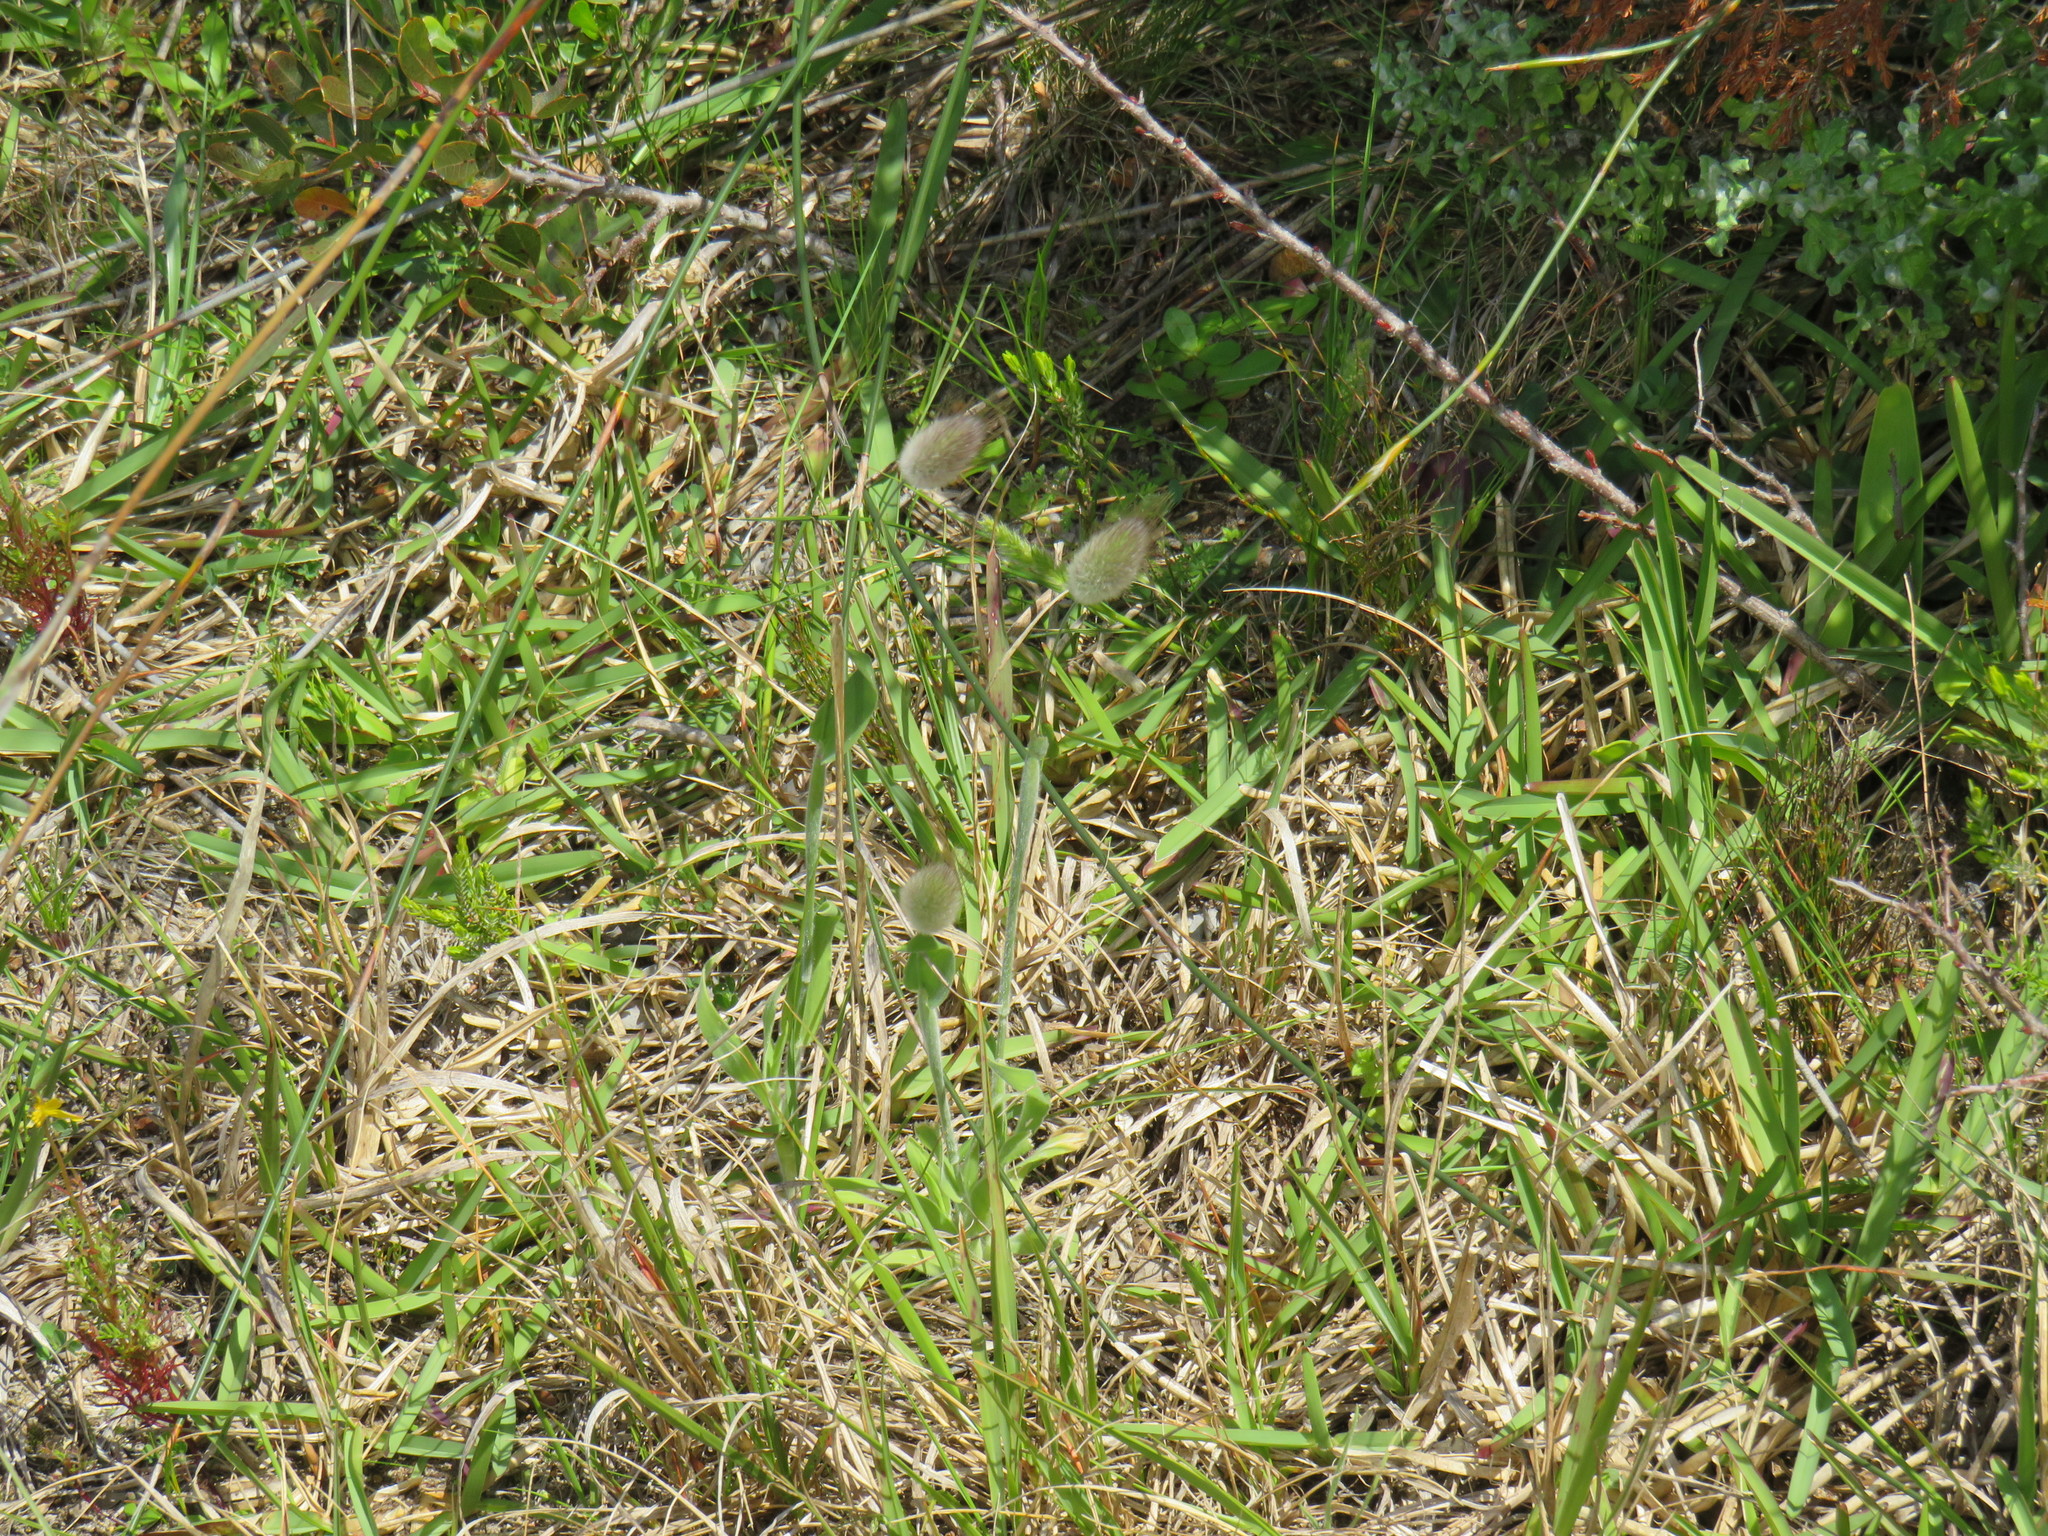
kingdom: Plantae
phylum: Tracheophyta
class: Liliopsida
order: Poales
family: Poaceae
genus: Lagurus
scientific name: Lagurus ovatus
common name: Hare's-tail
